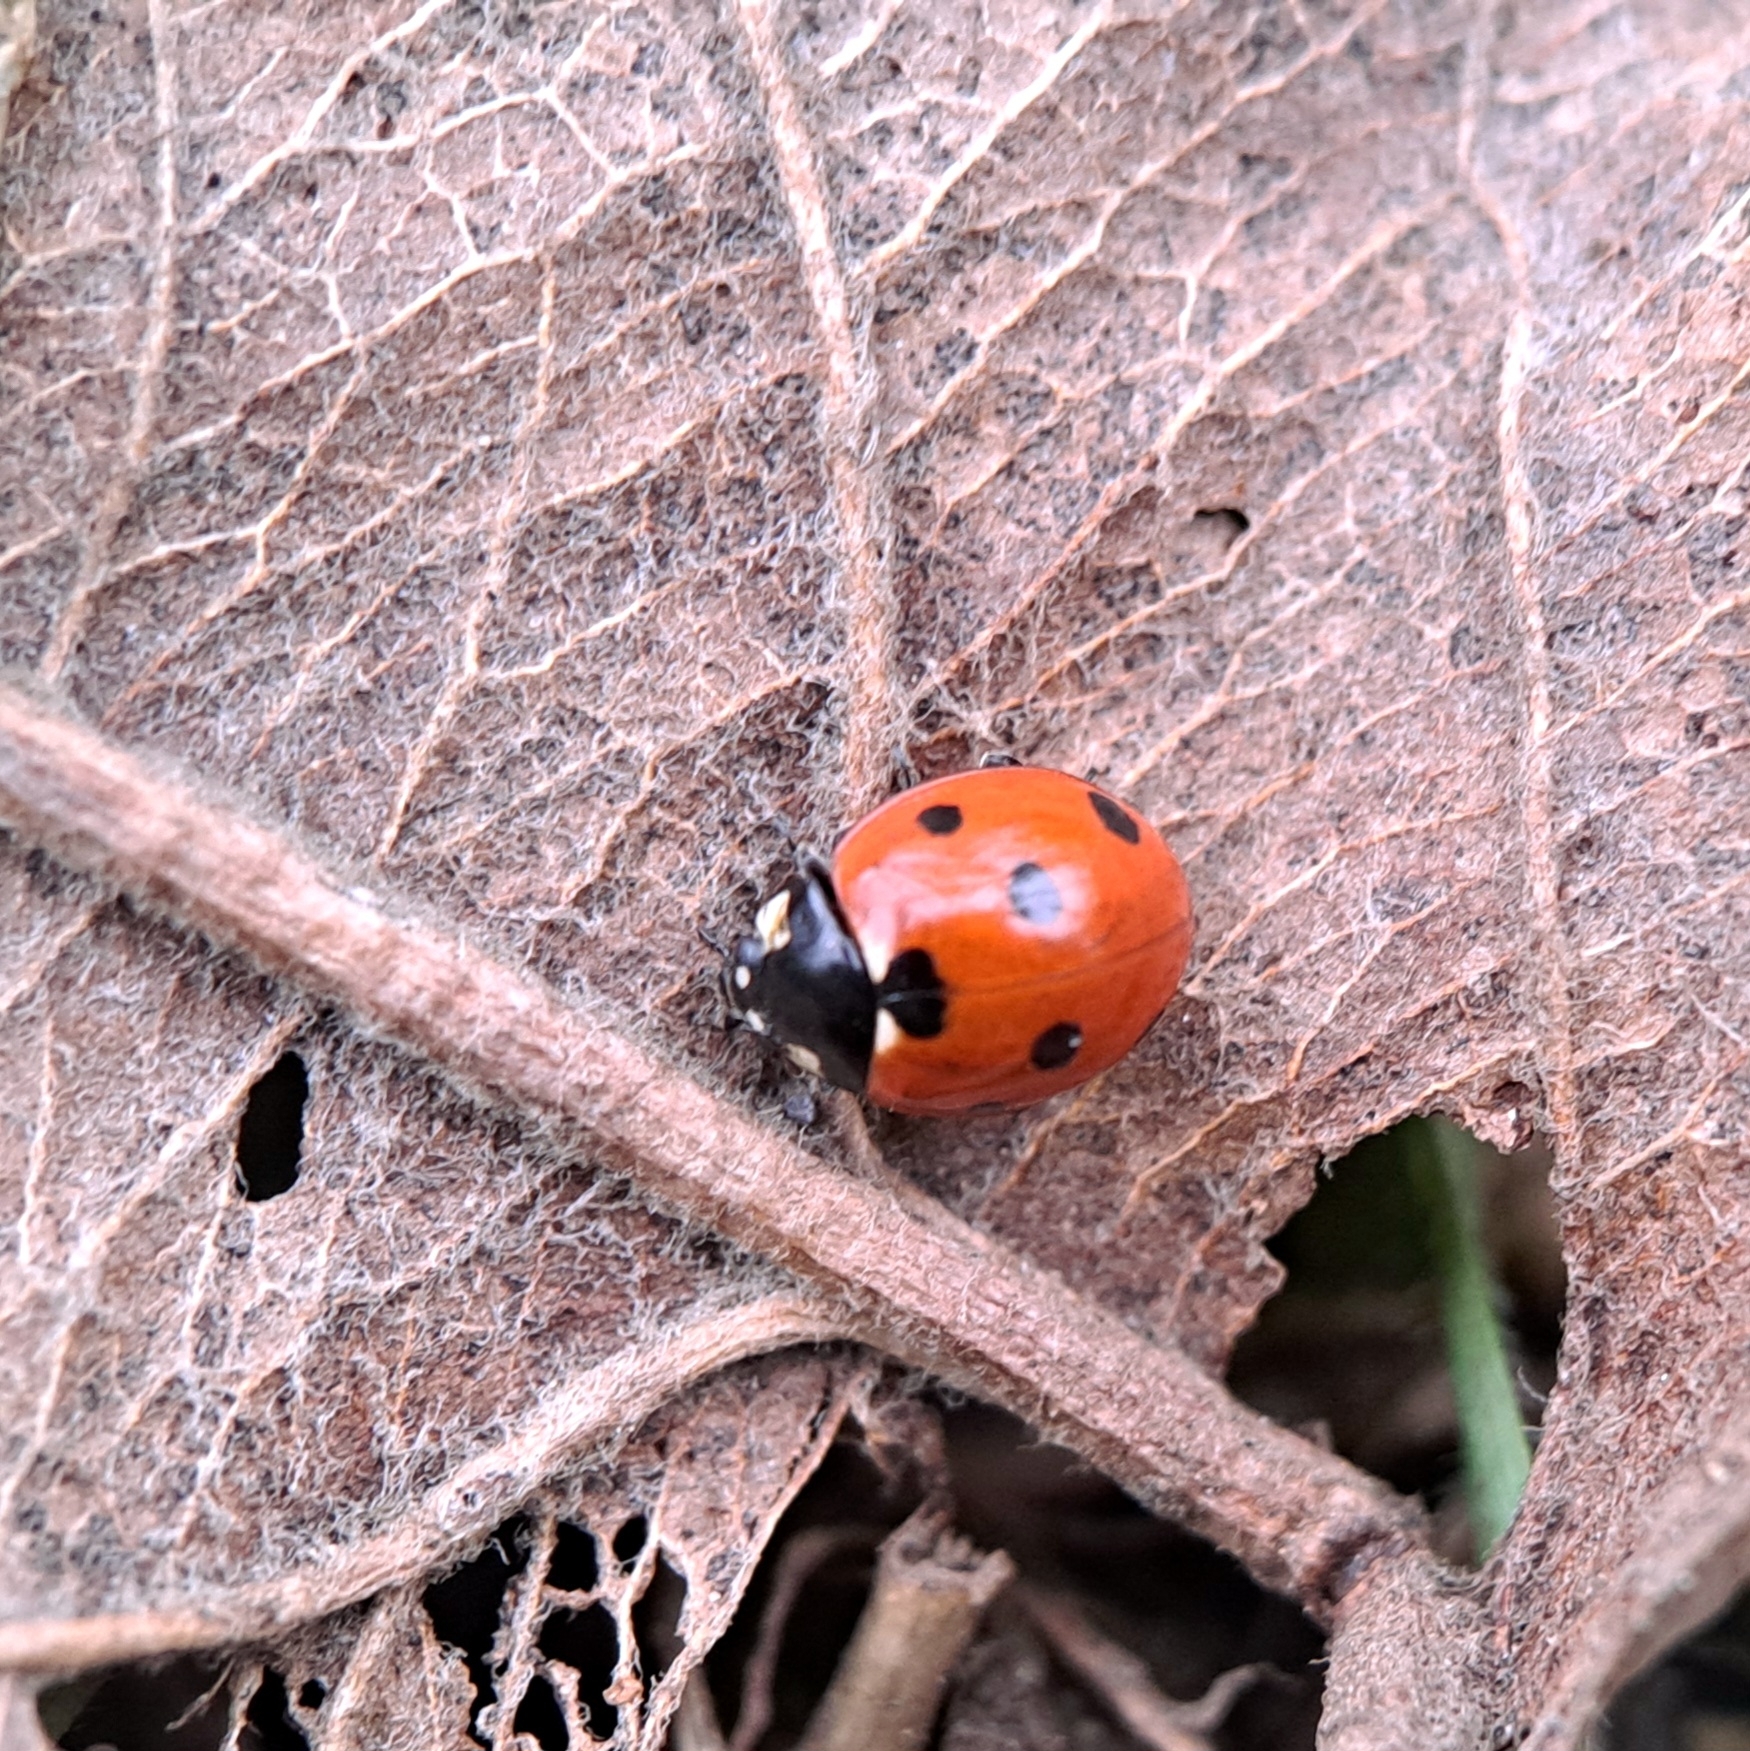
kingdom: Animalia
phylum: Arthropoda
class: Insecta
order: Coleoptera
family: Coccinellidae
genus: Coccinella
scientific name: Coccinella septempunctata
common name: Sevenspotted lady beetle
